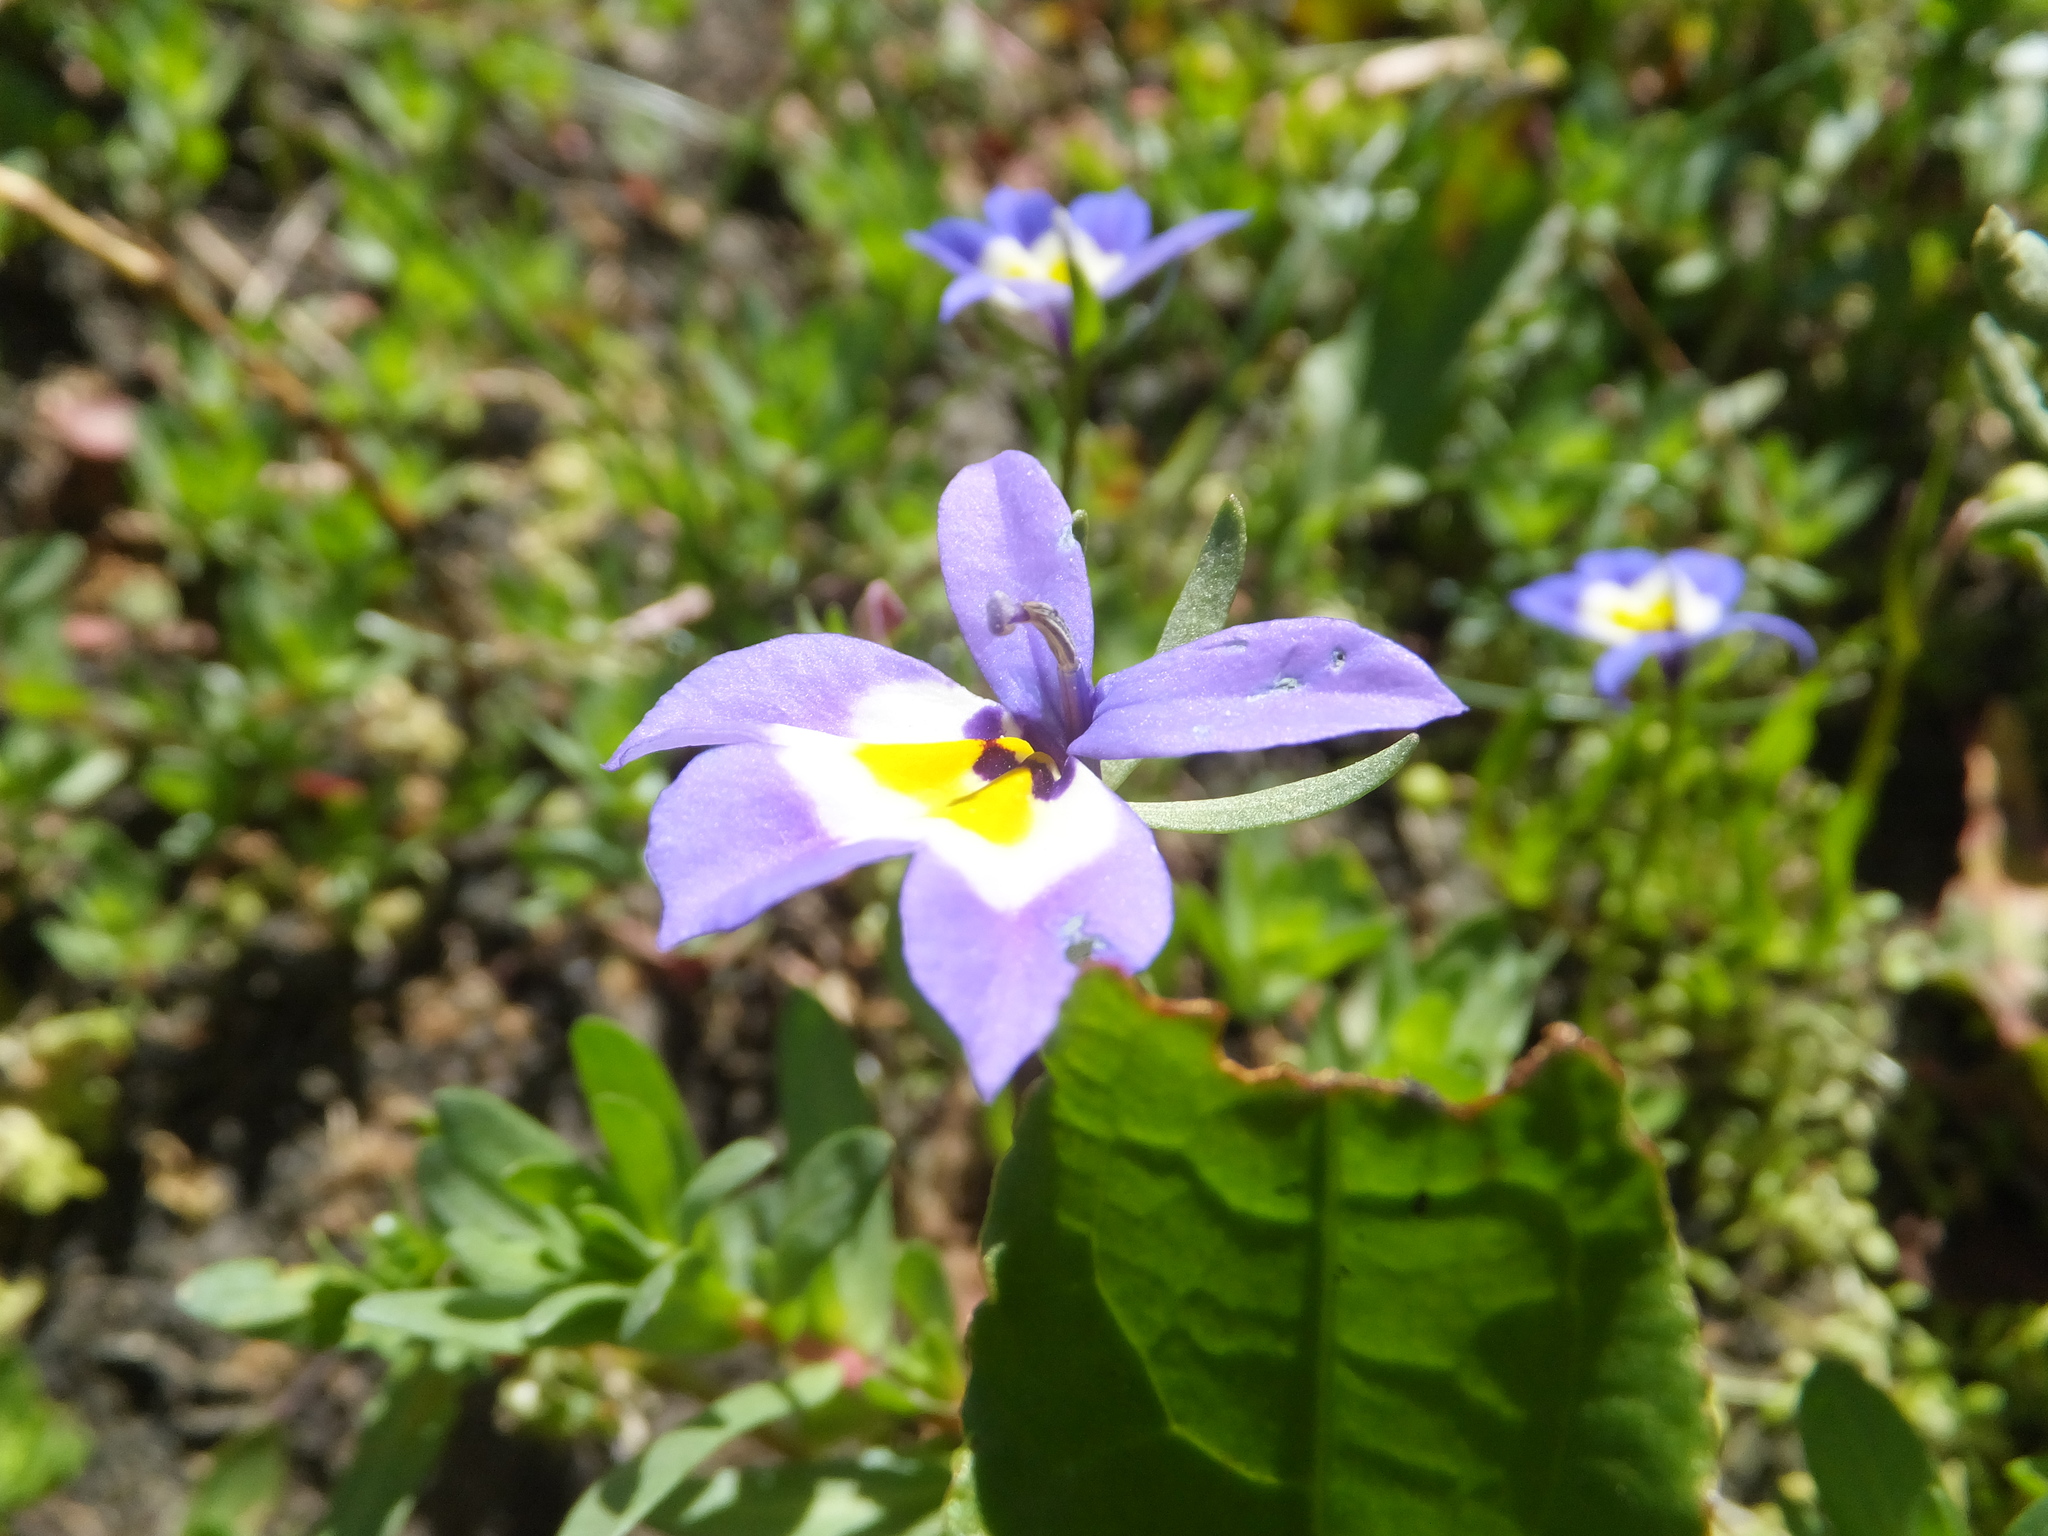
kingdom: Plantae
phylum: Tracheophyta
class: Magnoliopsida
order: Asterales
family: Campanulaceae
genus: Downingia
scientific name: Downingia pulchella
